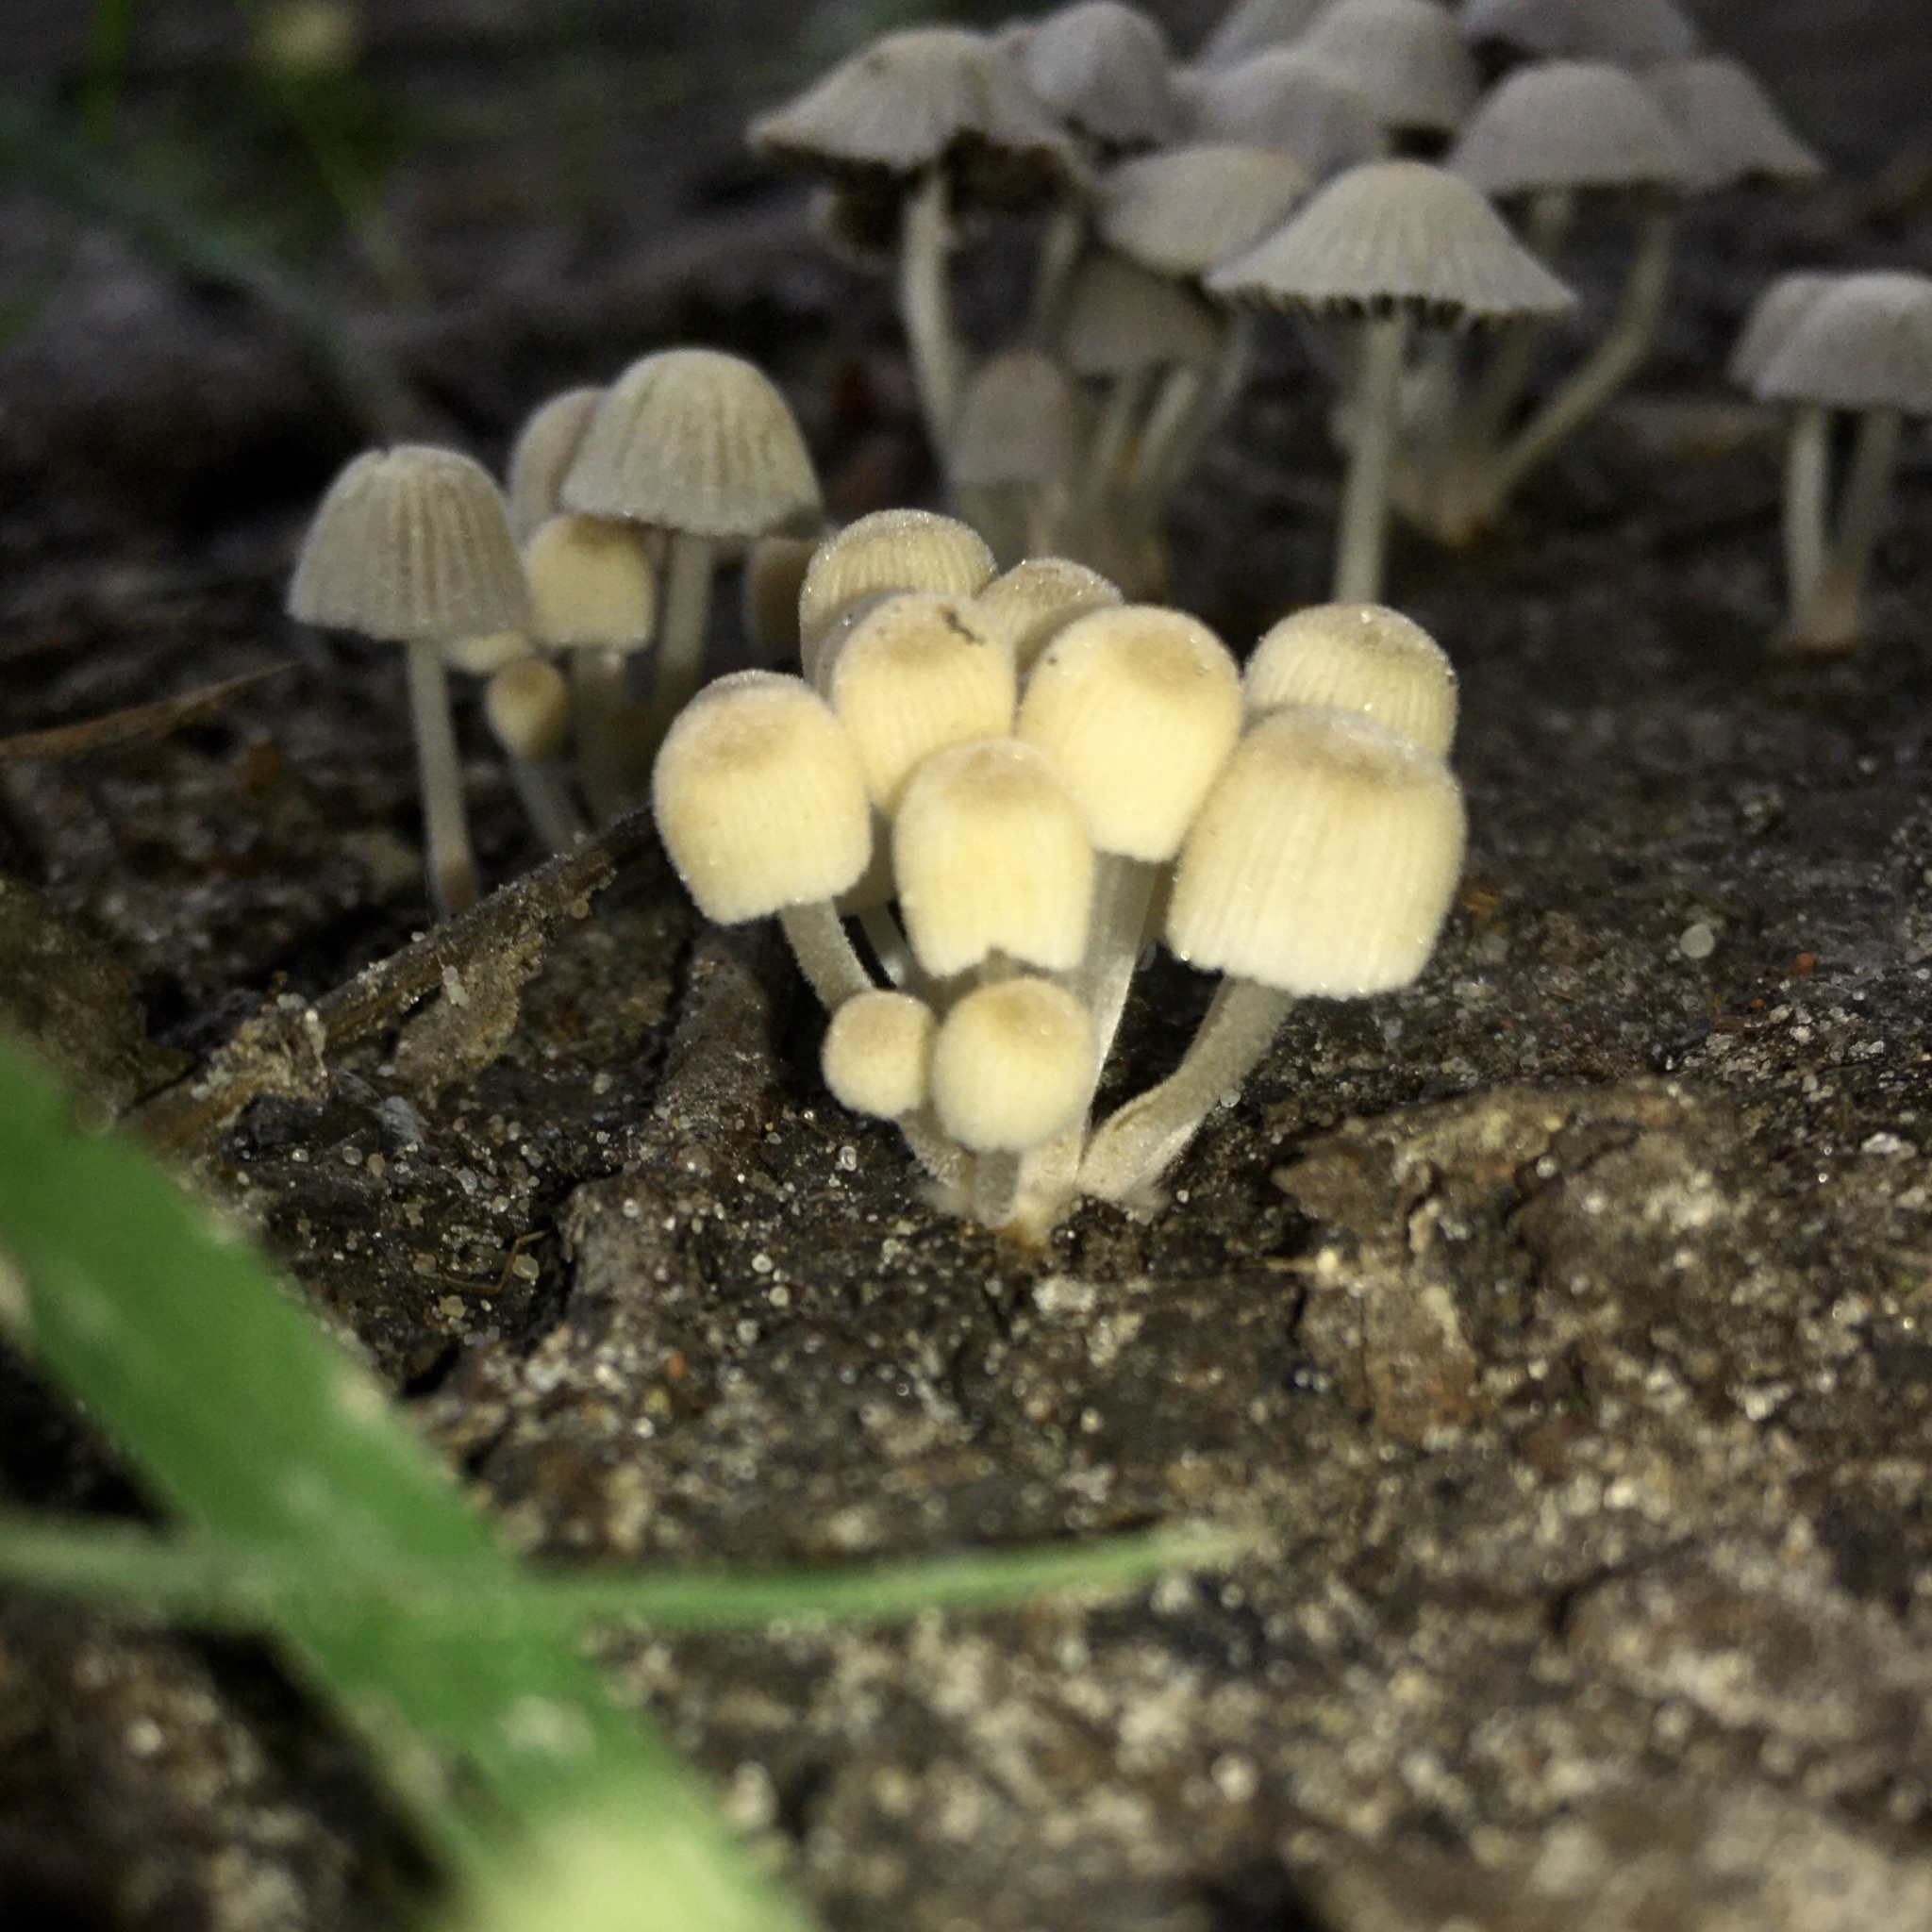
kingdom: Fungi
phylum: Basidiomycota
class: Agaricomycetes
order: Agaricales
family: Psathyrellaceae
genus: Coprinellus
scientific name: Coprinellus disseminatus
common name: Fairies' bonnets
